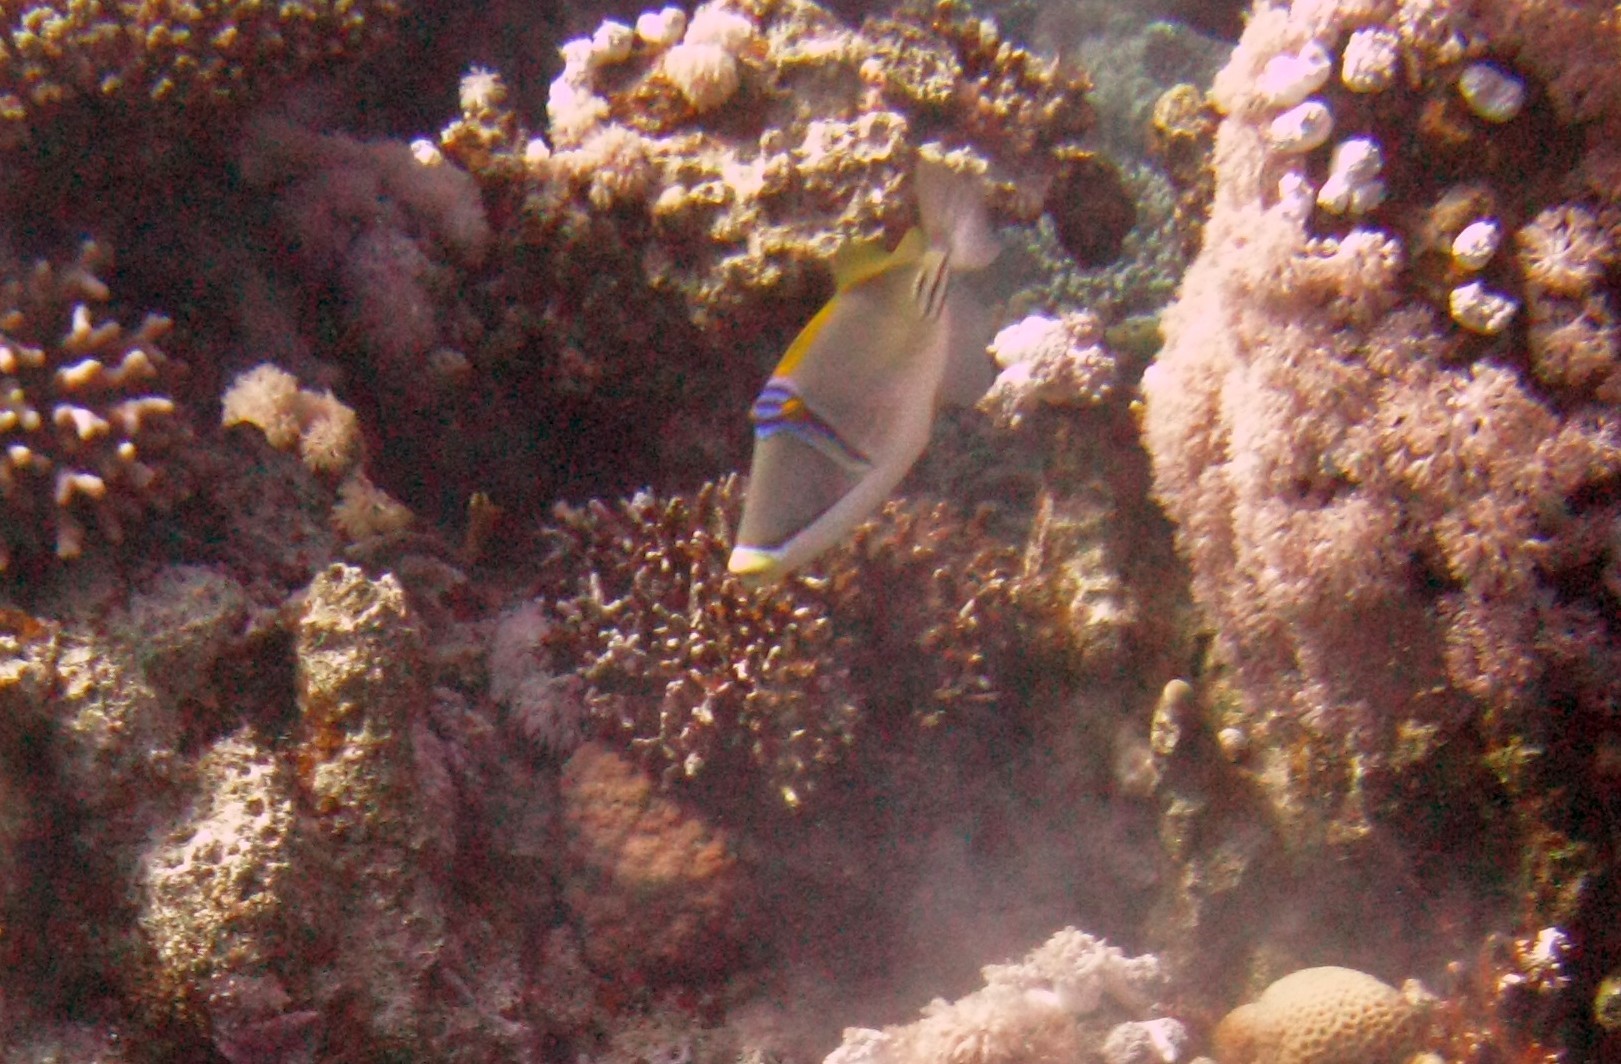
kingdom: Animalia
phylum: Chordata
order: Tetraodontiformes
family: Balistidae
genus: Rhinecanthus
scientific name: Rhinecanthus assasi
